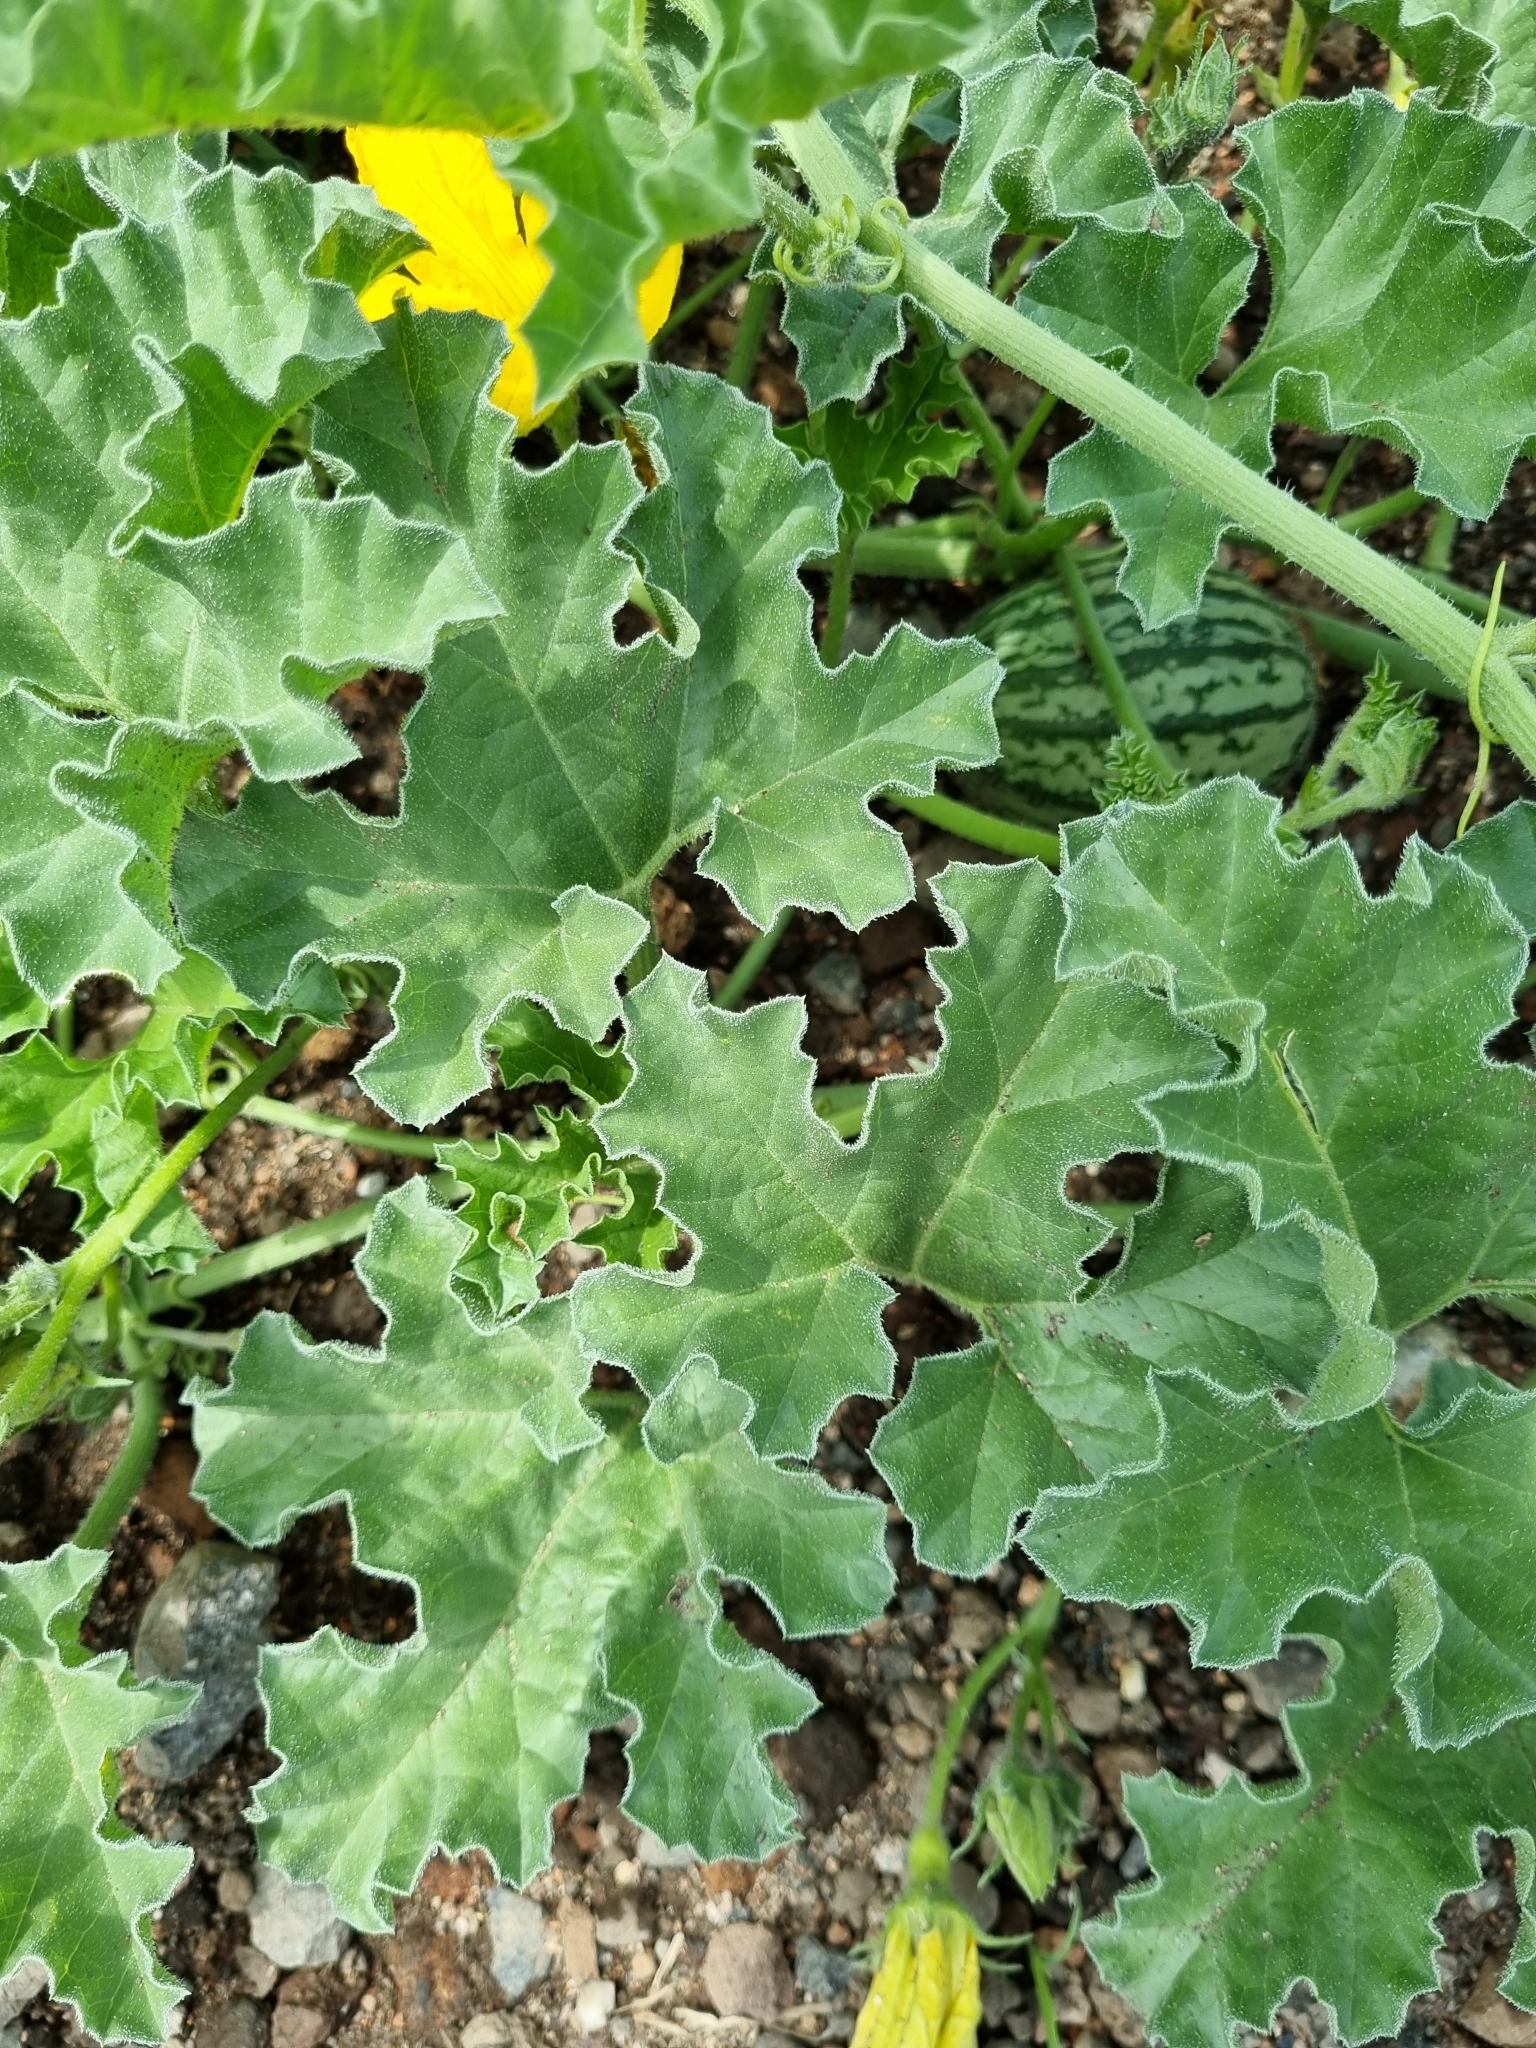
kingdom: Plantae
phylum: Tracheophyta
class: Magnoliopsida
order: Cucurbitales
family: Cucurbitaceae
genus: Apodanthera
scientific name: Apodanthera undulata
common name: Melon-loco
